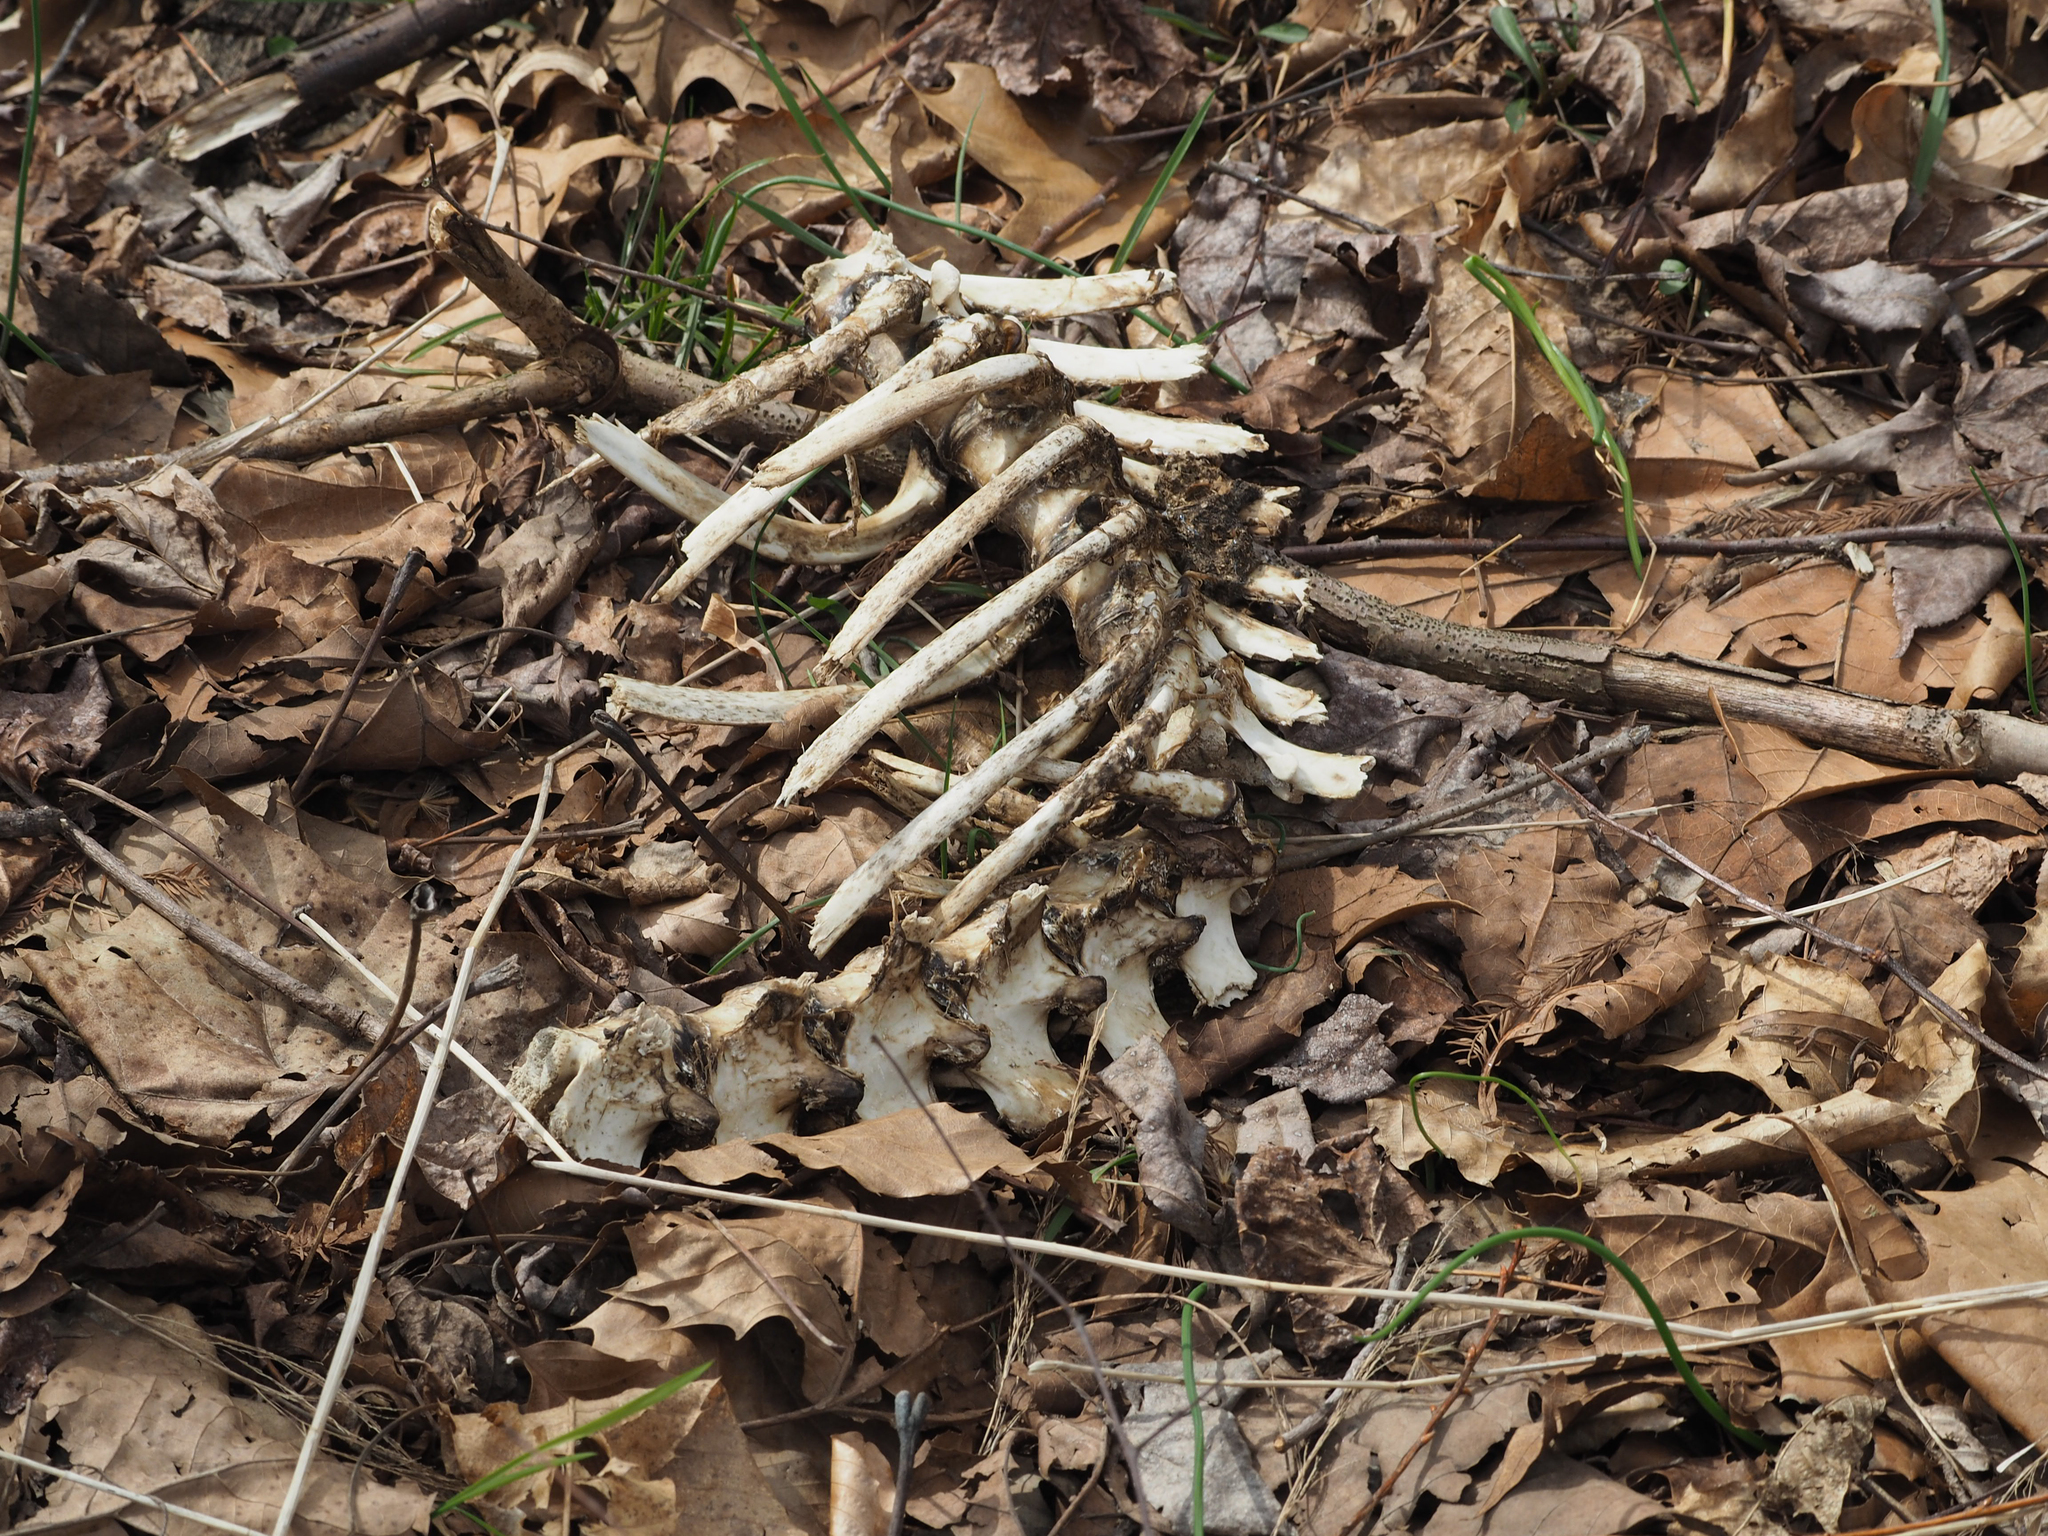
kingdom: Animalia
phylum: Chordata
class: Mammalia
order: Artiodactyla
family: Cervidae
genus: Odocoileus
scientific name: Odocoileus virginianus
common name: White-tailed deer
